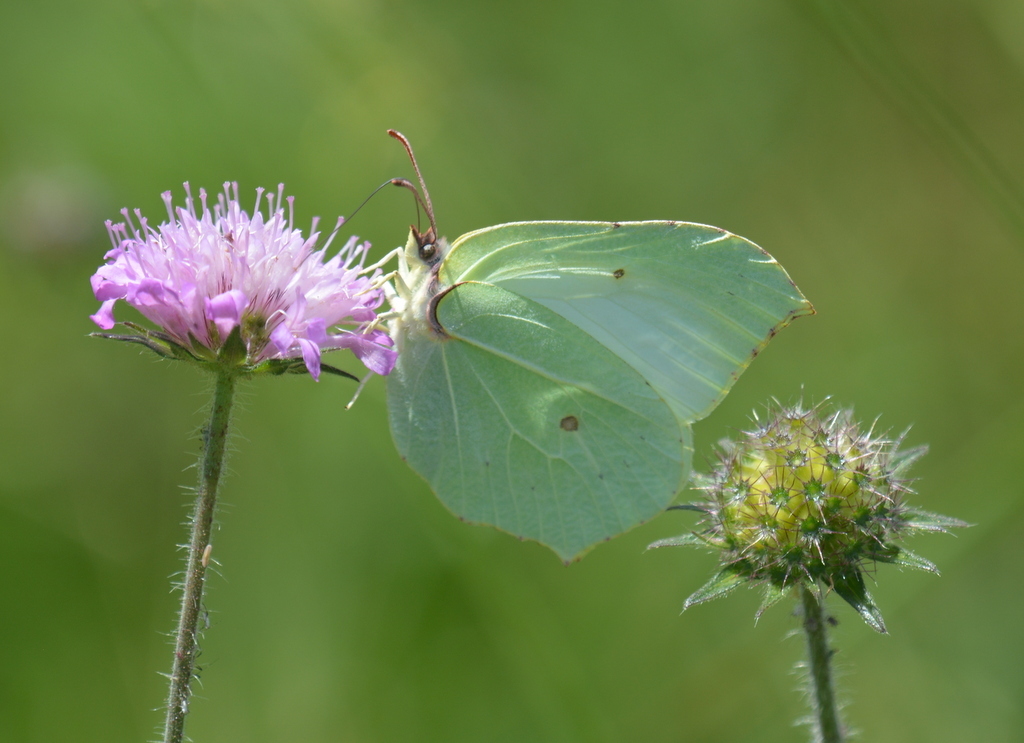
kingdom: Animalia
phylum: Arthropoda
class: Insecta
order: Lepidoptera
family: Pieridae
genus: Gonepteryx
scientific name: Gonepteryx rhamni
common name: Brimstone
